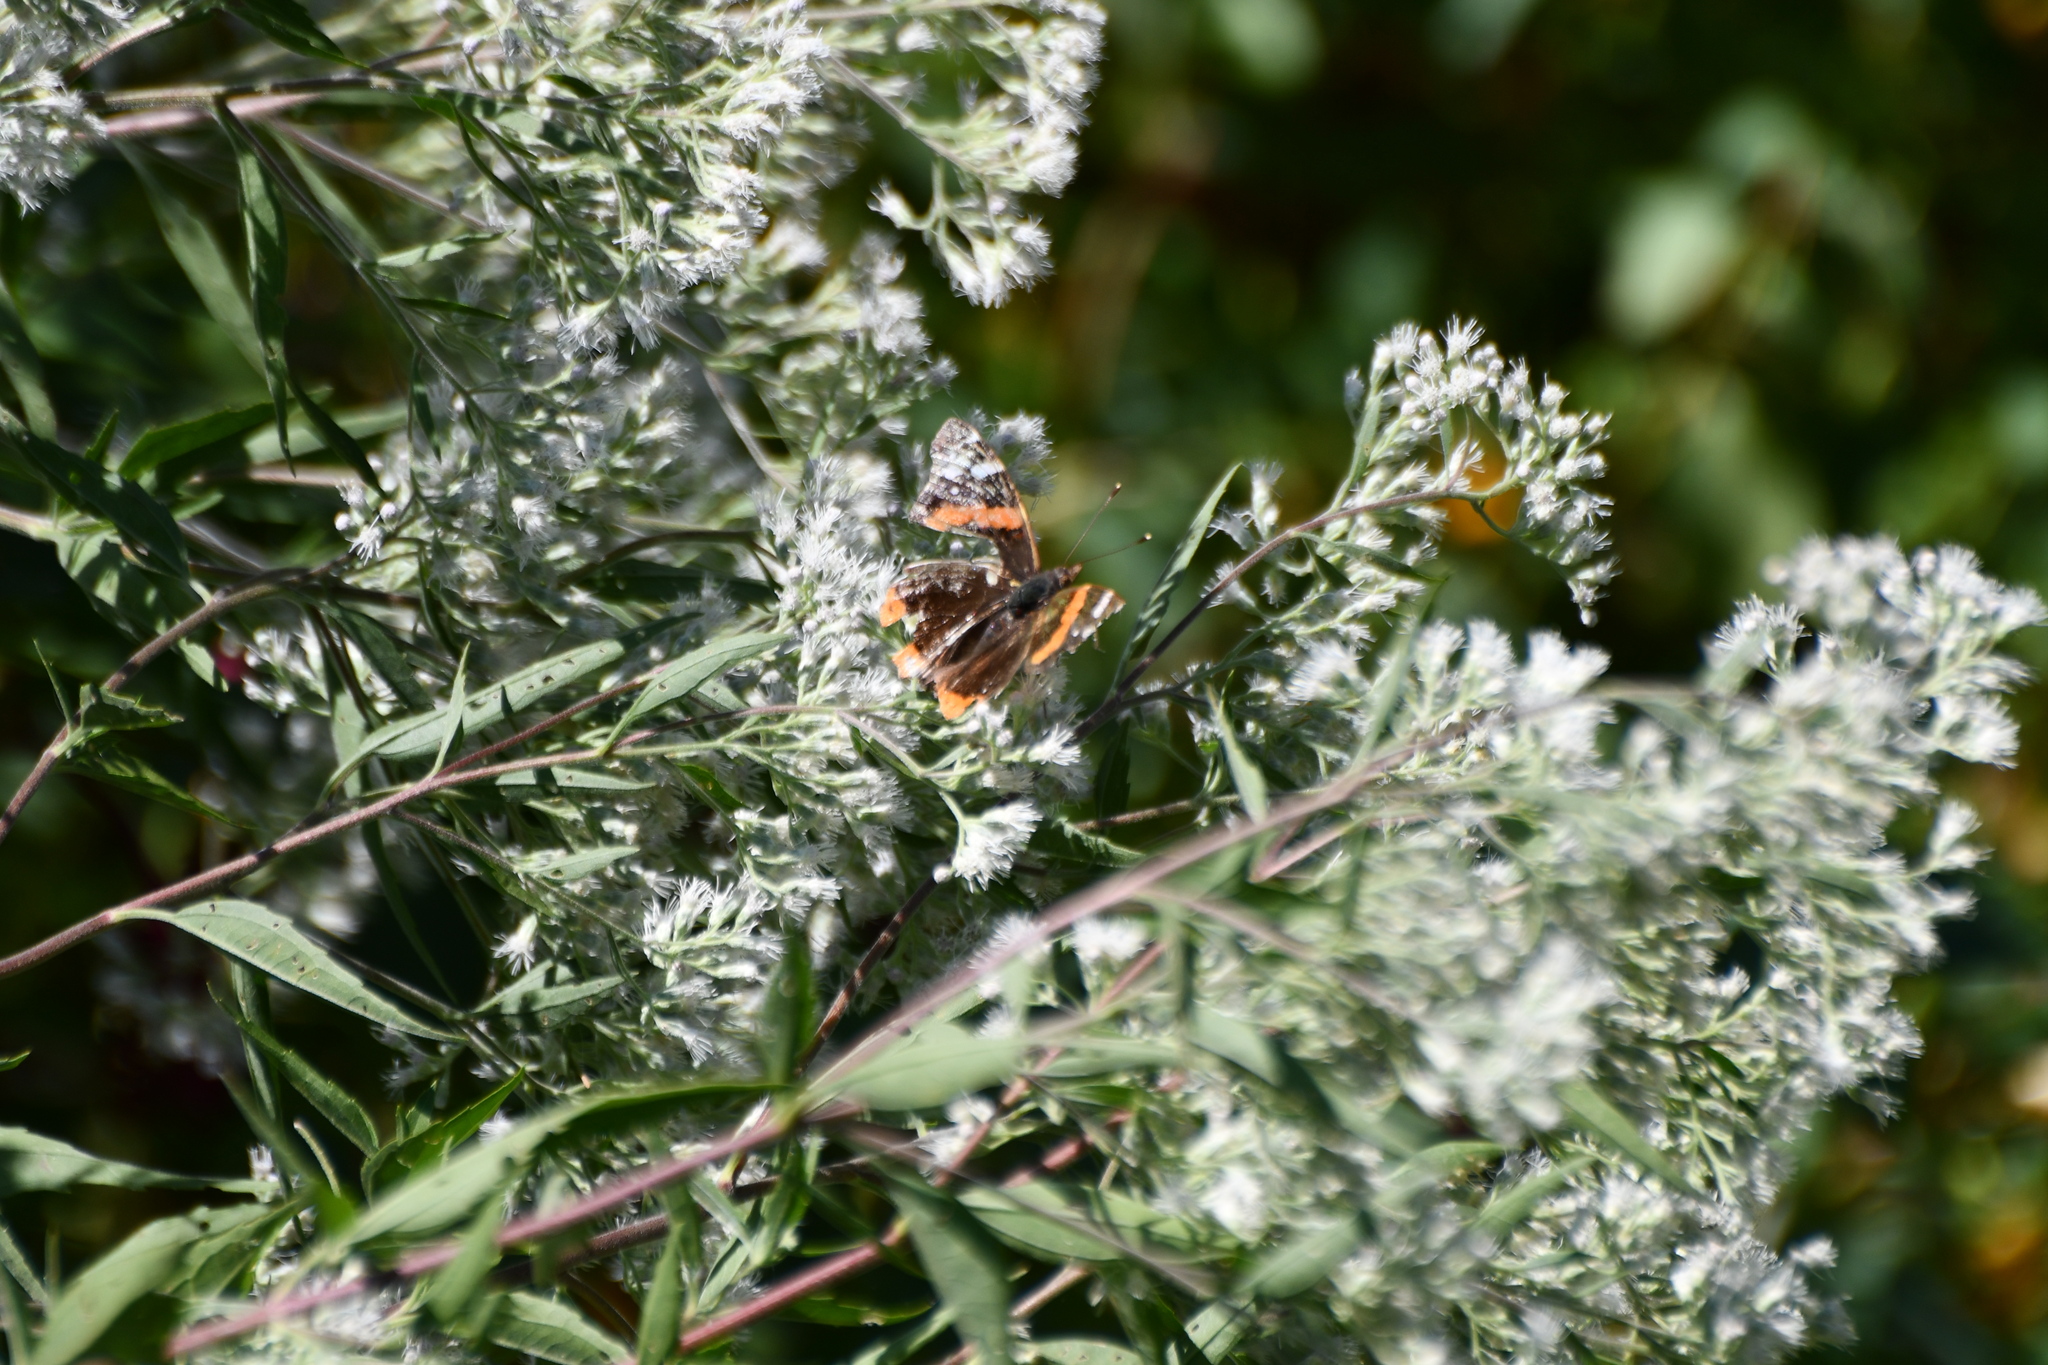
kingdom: Animalia
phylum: Arthropoda
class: Insecta
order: Lepidoptera
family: Nymphalidae
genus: Vanessa
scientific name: Vanessa atalanta
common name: Red admiral
